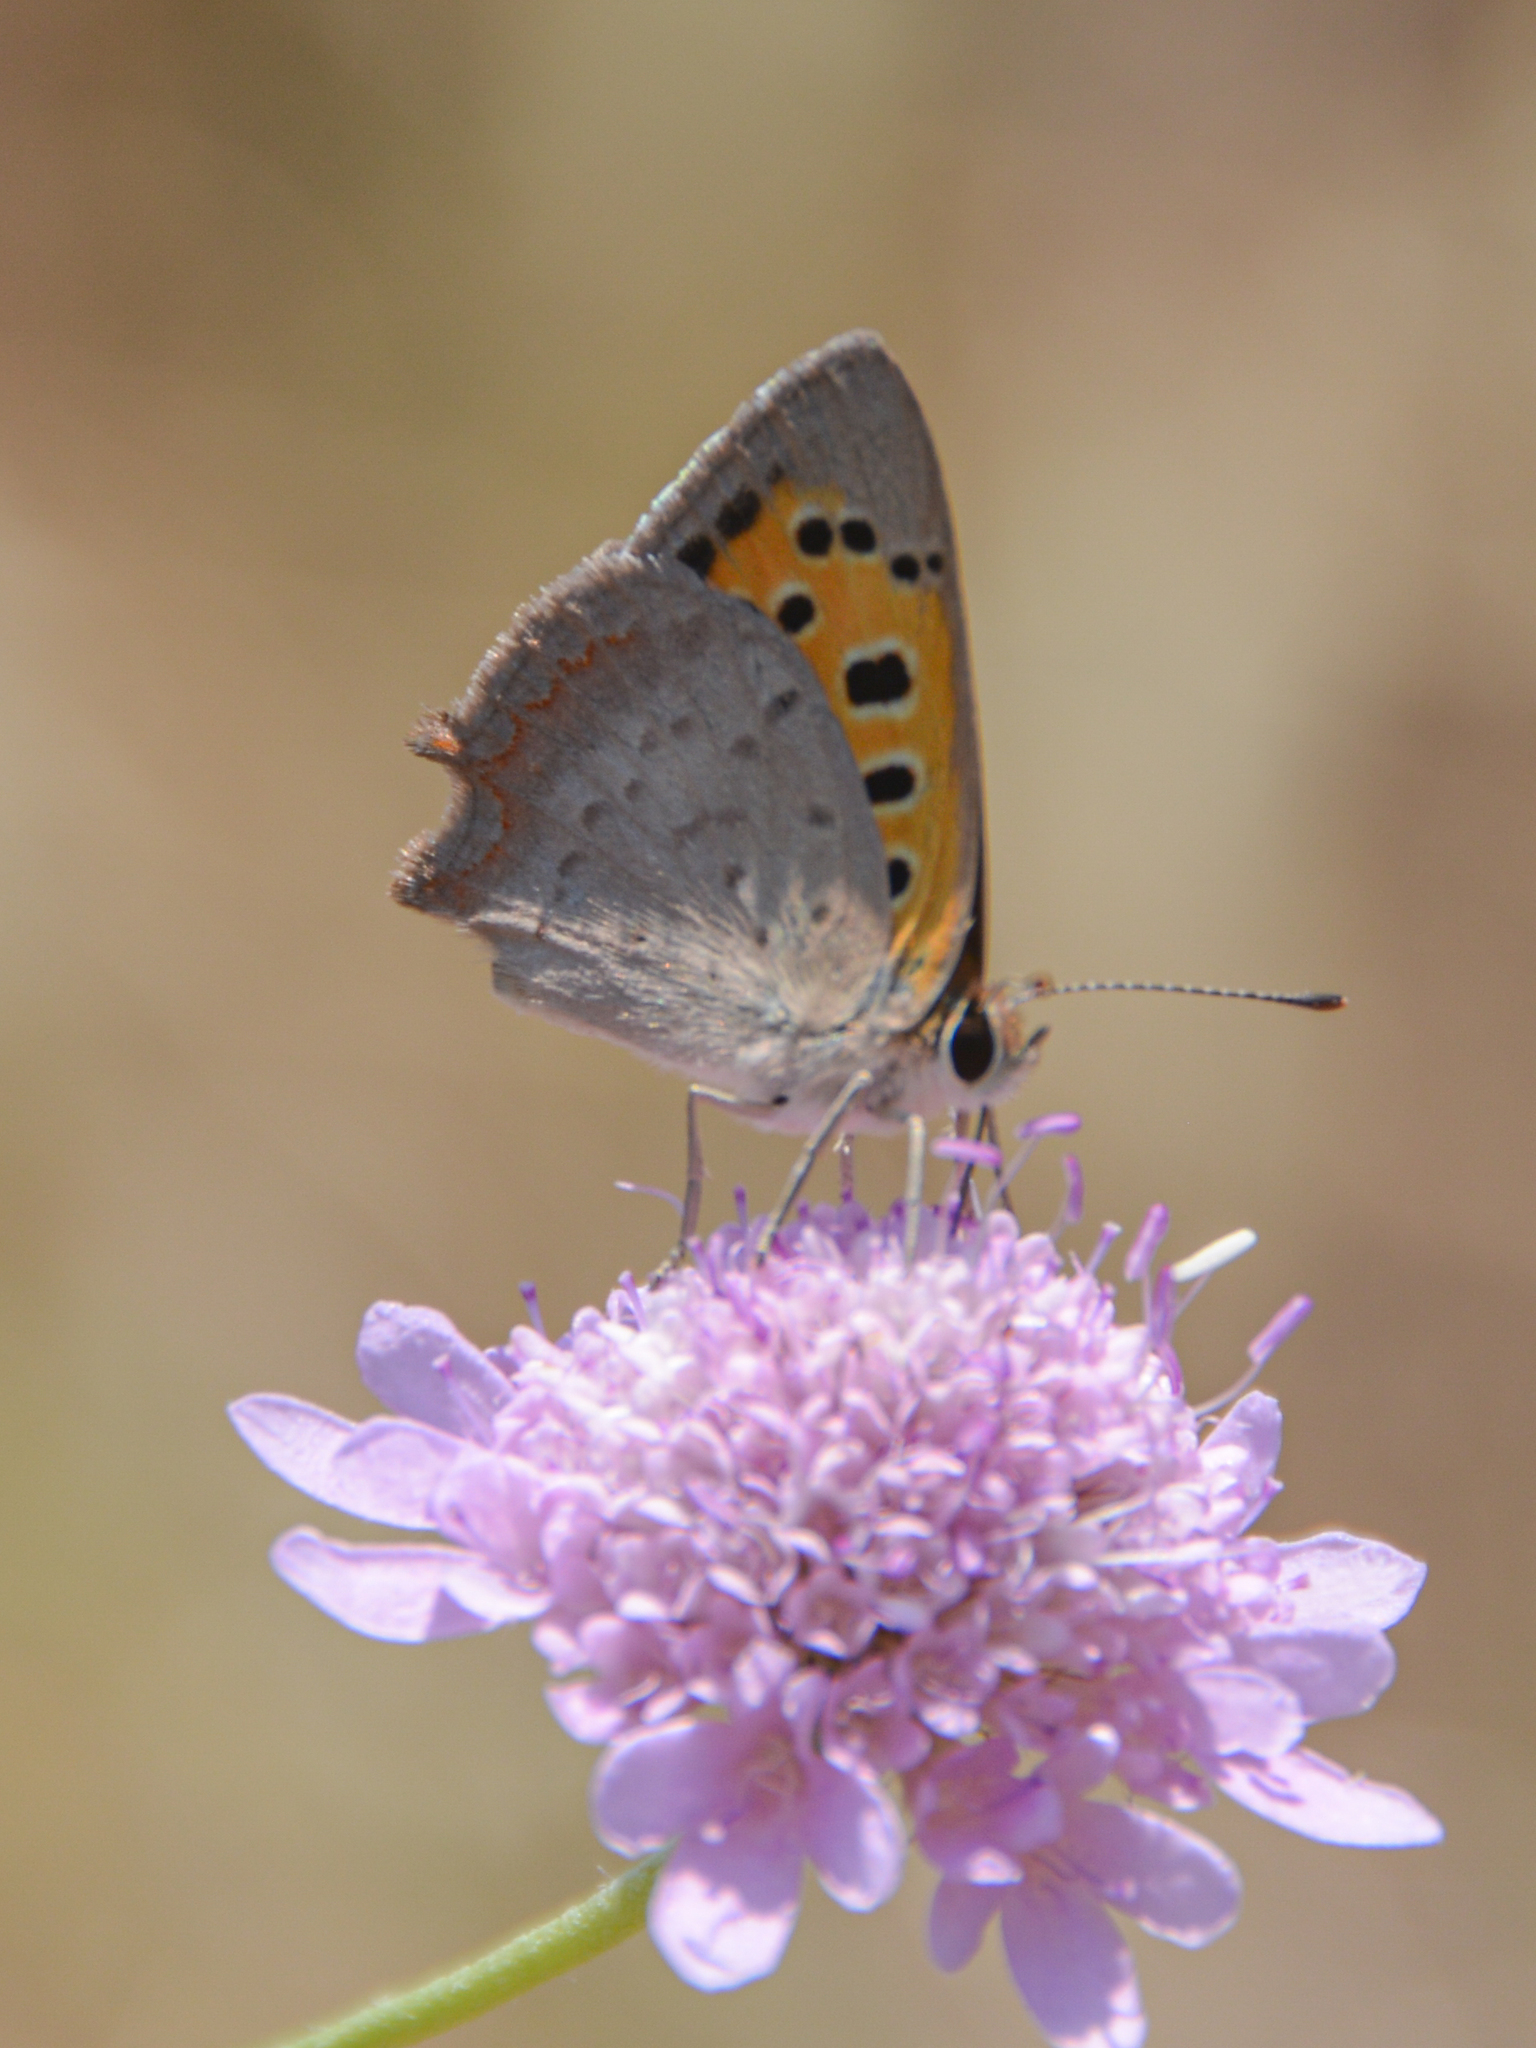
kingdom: Animalia
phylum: Arthropoda
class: Insecta
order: Lepidoptera
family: Lycaenidae
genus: Lycaena
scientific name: Lycaena phlaeas
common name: Small copper
